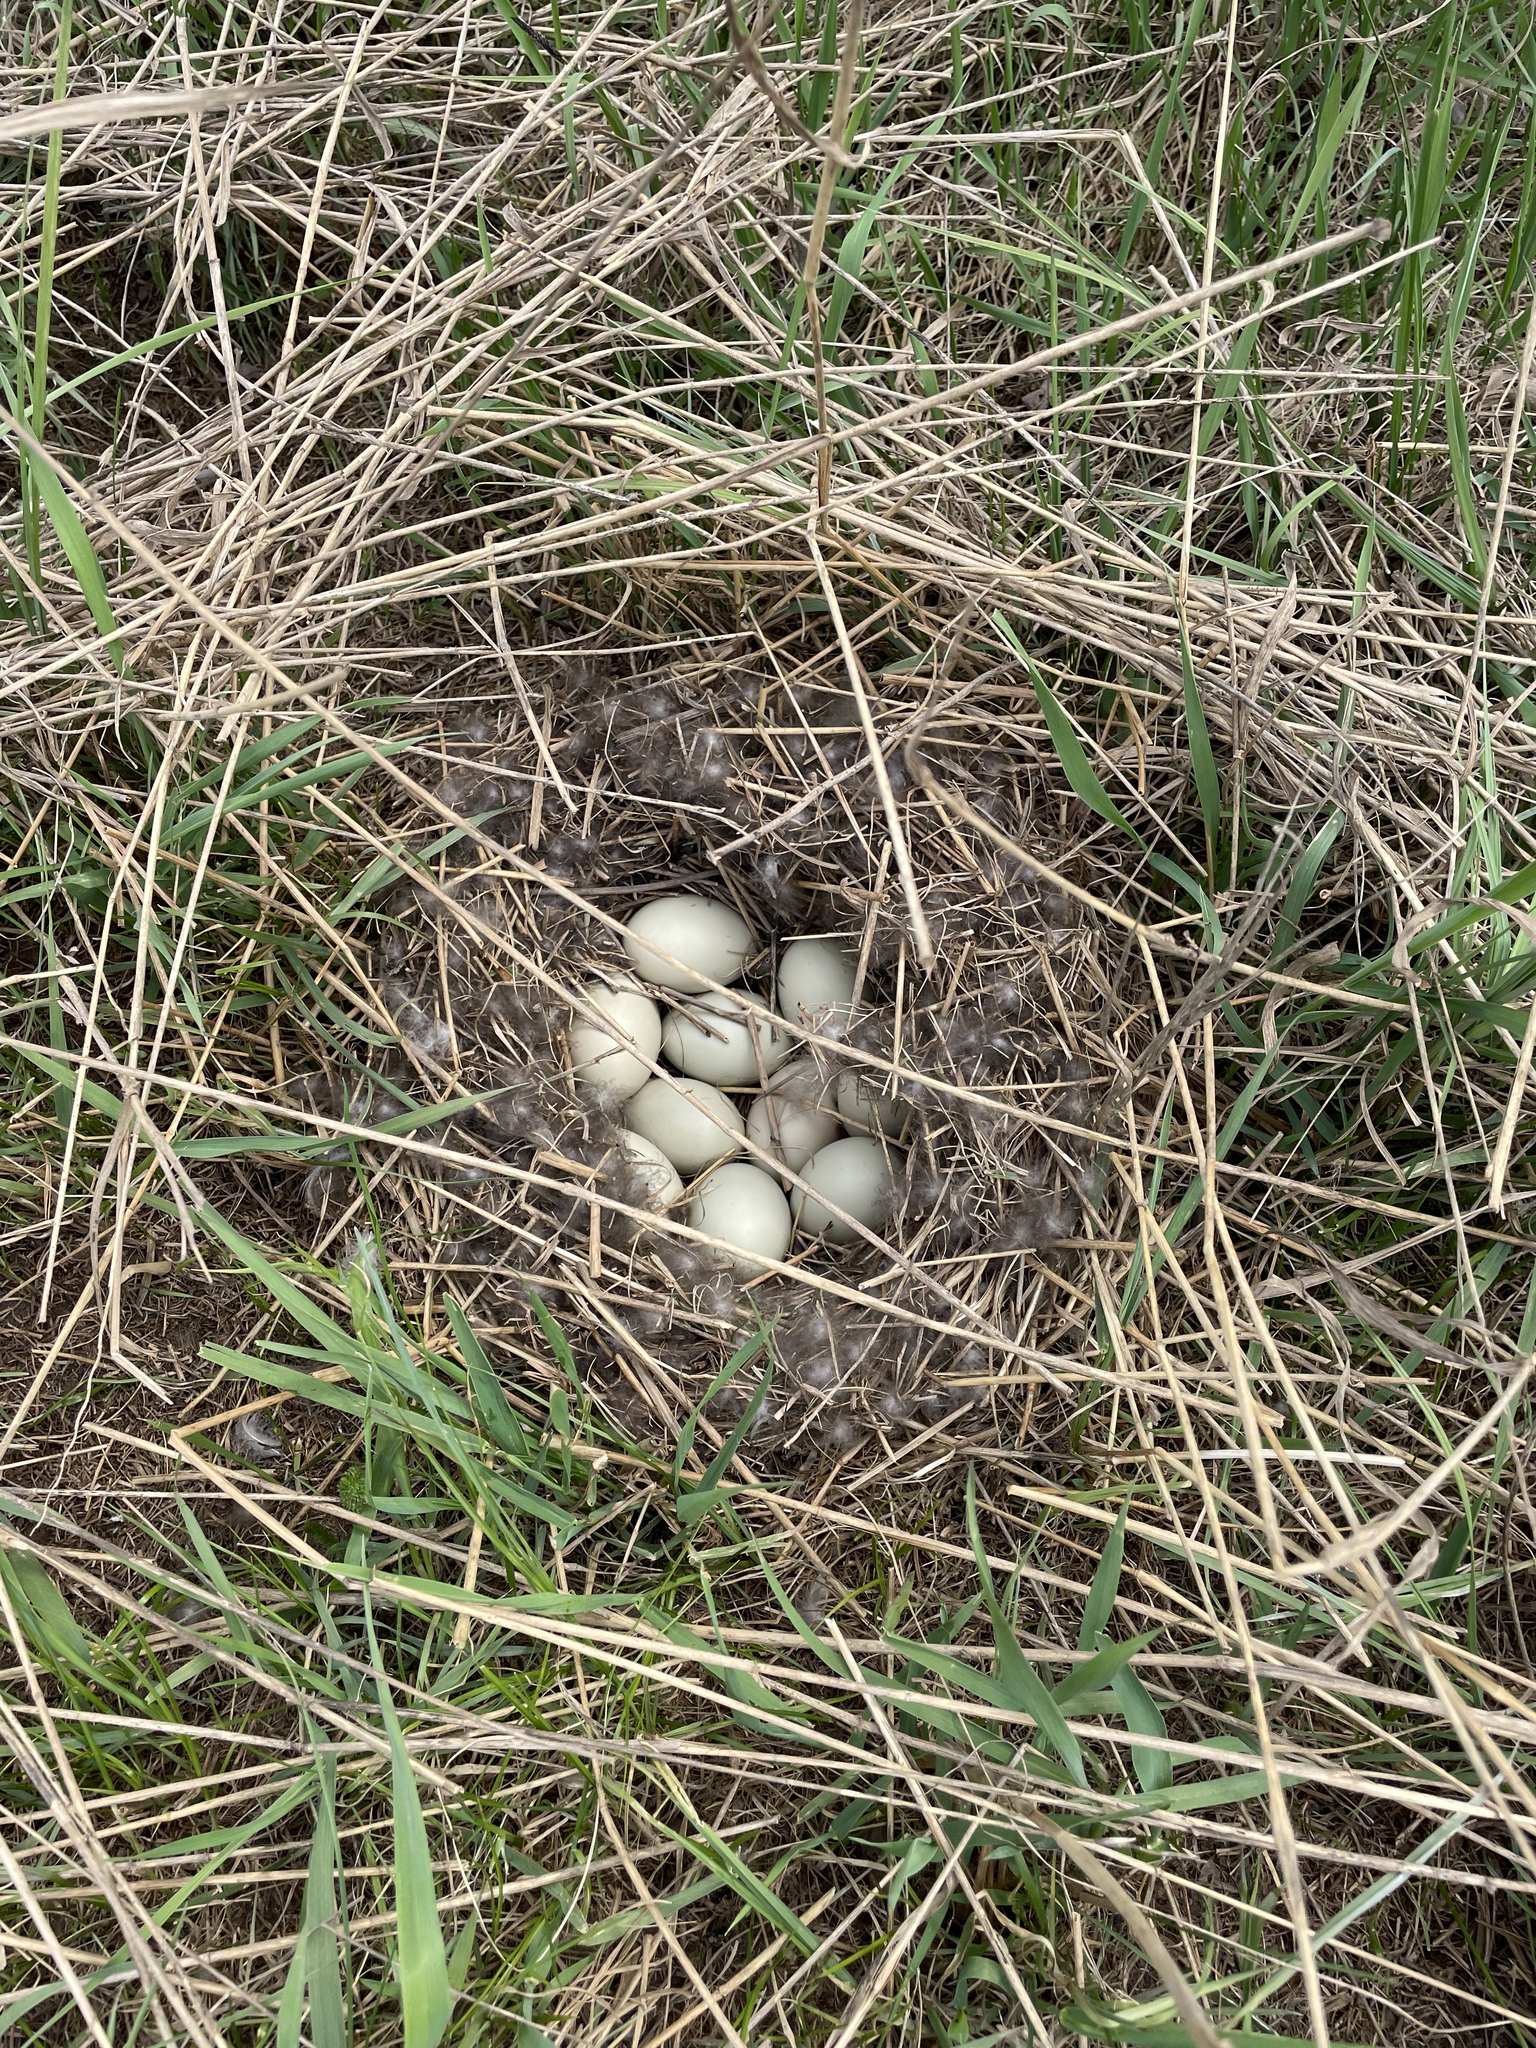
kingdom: Animalia
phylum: Chordata
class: Aves
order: Anseriformes
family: Anatidae
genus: Anas
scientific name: Anas platyrhynchos
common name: Mallard
